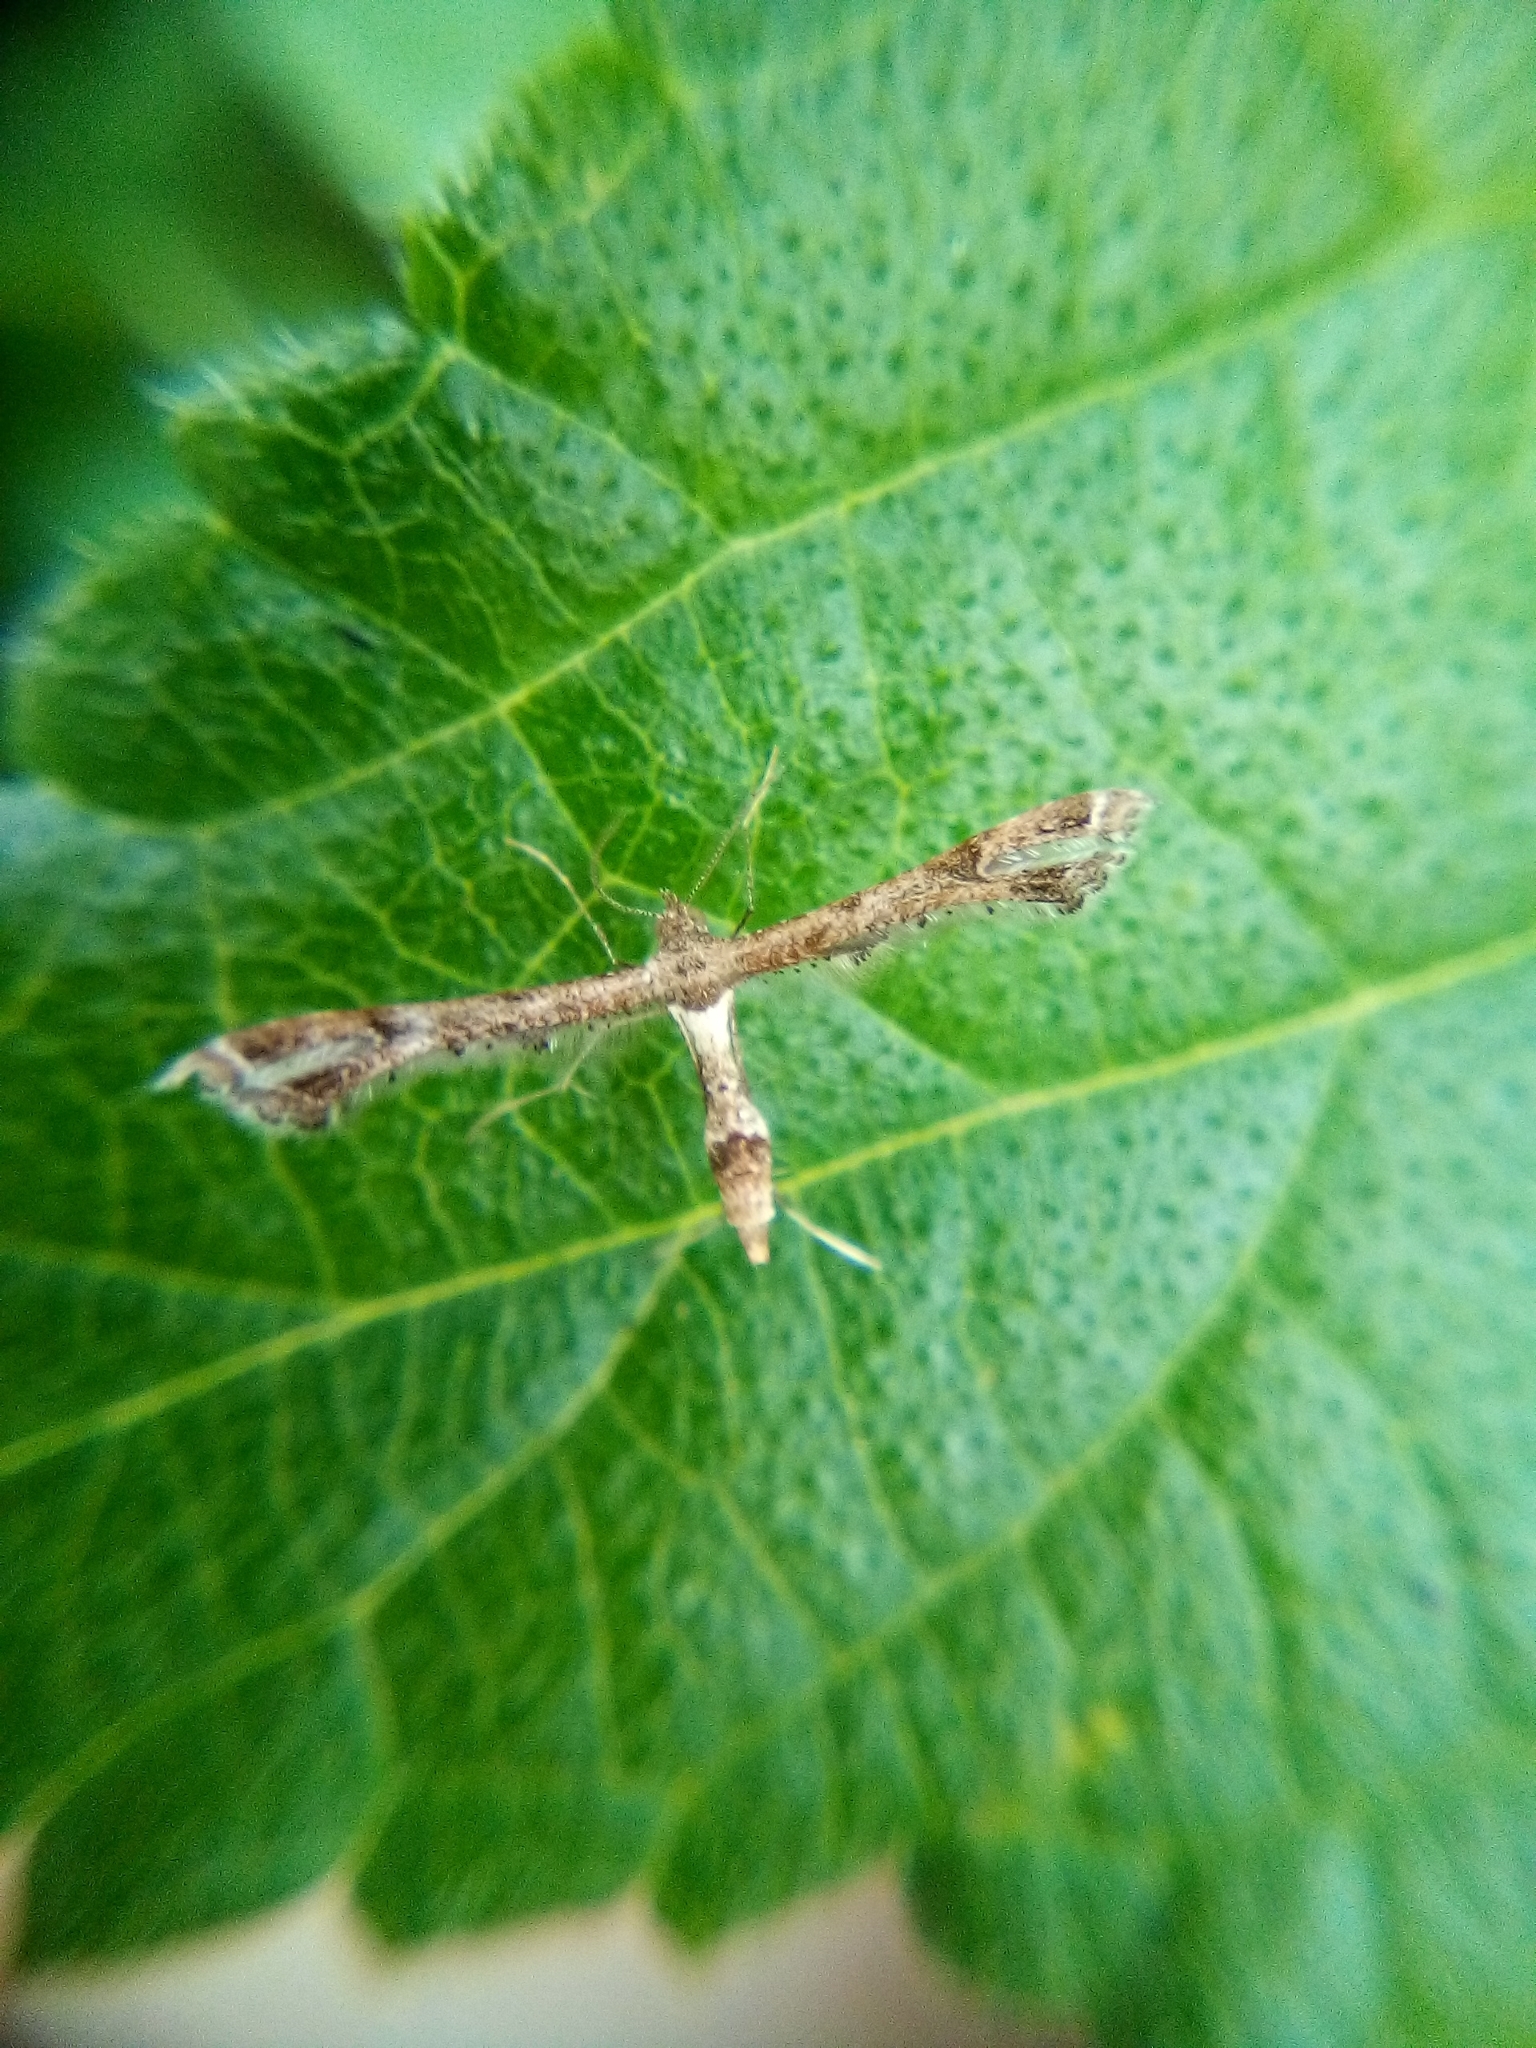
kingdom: Animalia
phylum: Arthropoda
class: Insecta
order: Lepidoptera
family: Pterophoridae
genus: Lantanophaga
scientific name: Lantanophaga pusillidactylus
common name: Moth
